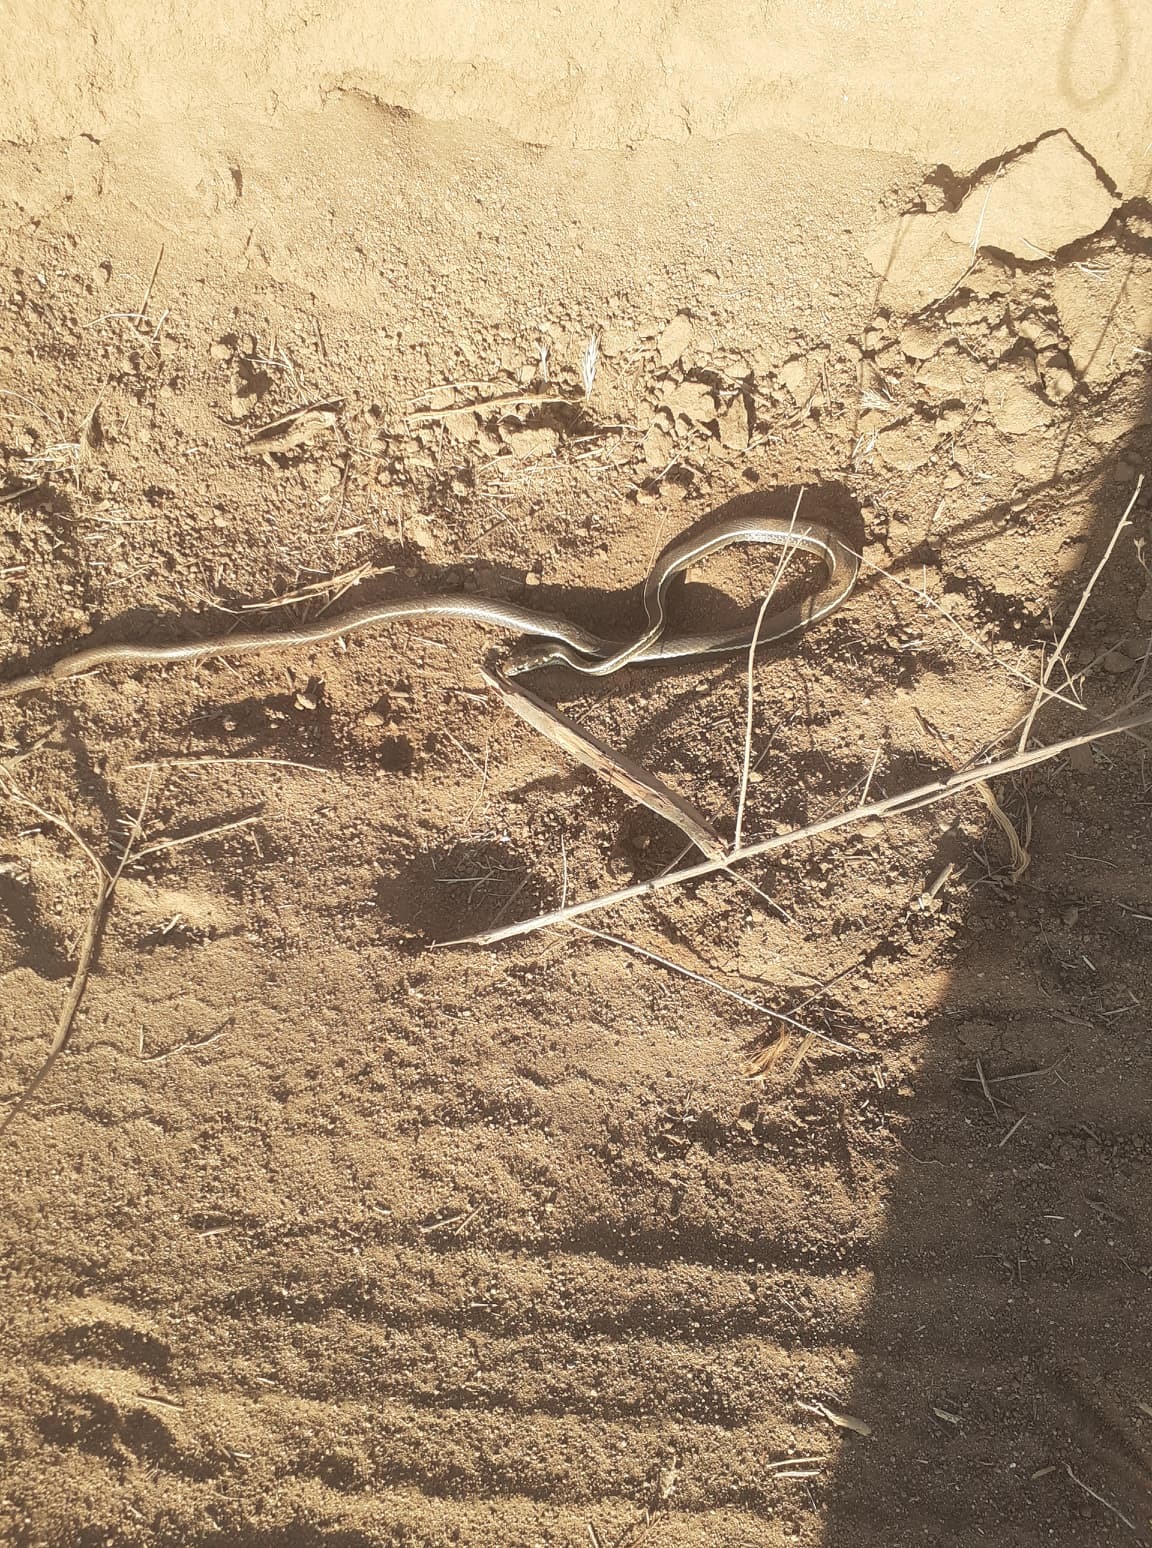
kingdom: Animalia
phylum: Chordata
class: Squamata
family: Colubridae
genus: Masticophis
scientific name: Masticophis lateralis
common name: Striped racer
